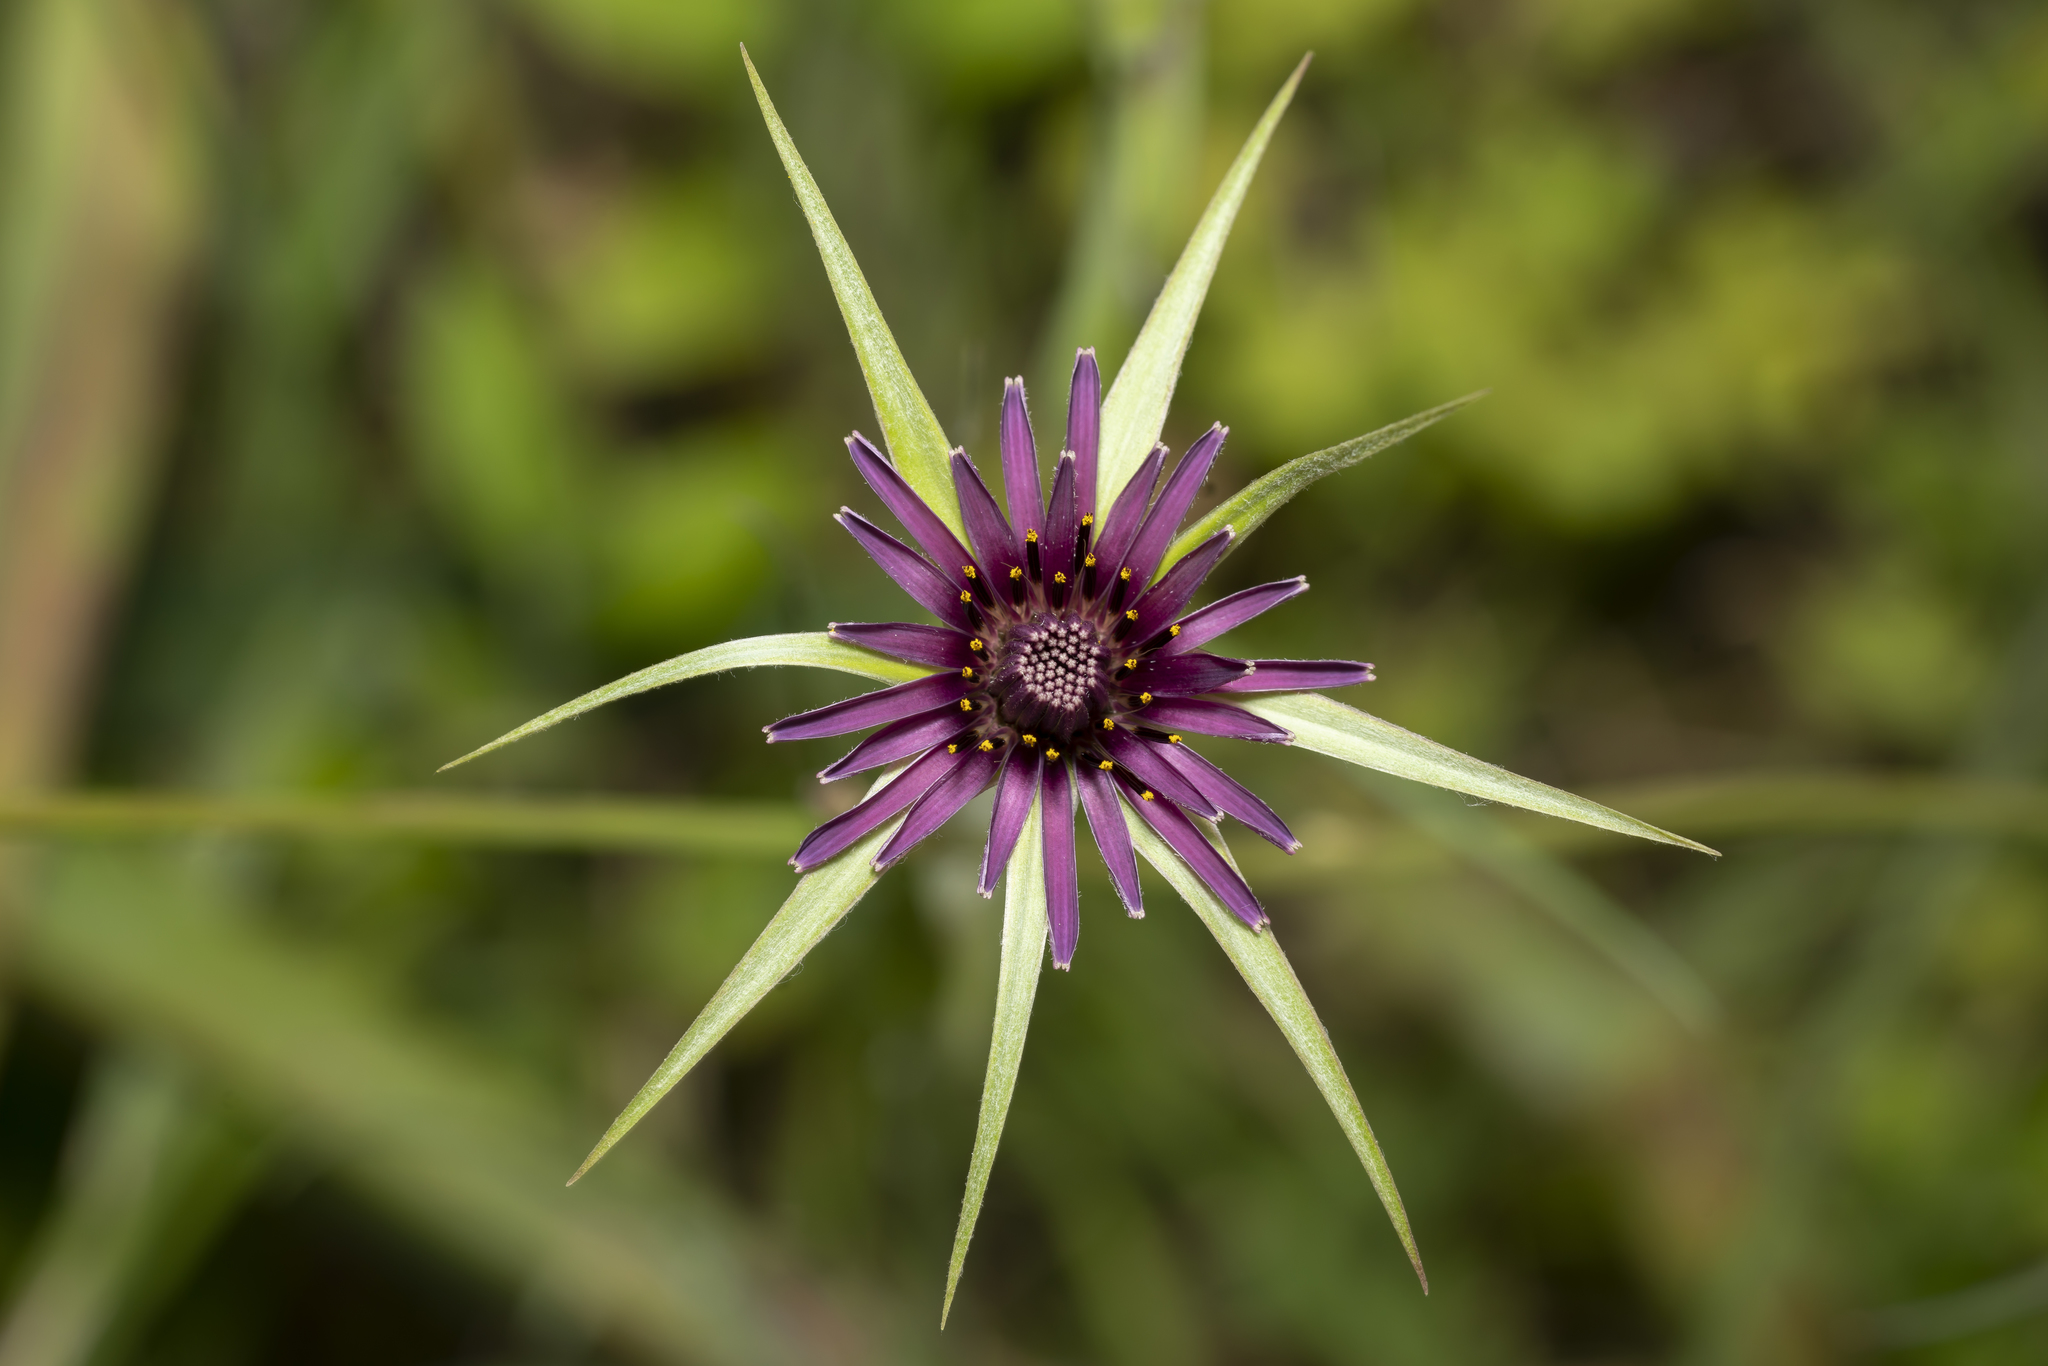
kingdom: Plantae
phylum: Tracheophyta
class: Magnoliopsida
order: Asterales
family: Asteraceae
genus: Tragopogon
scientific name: Tragopogon coelesyriacus
